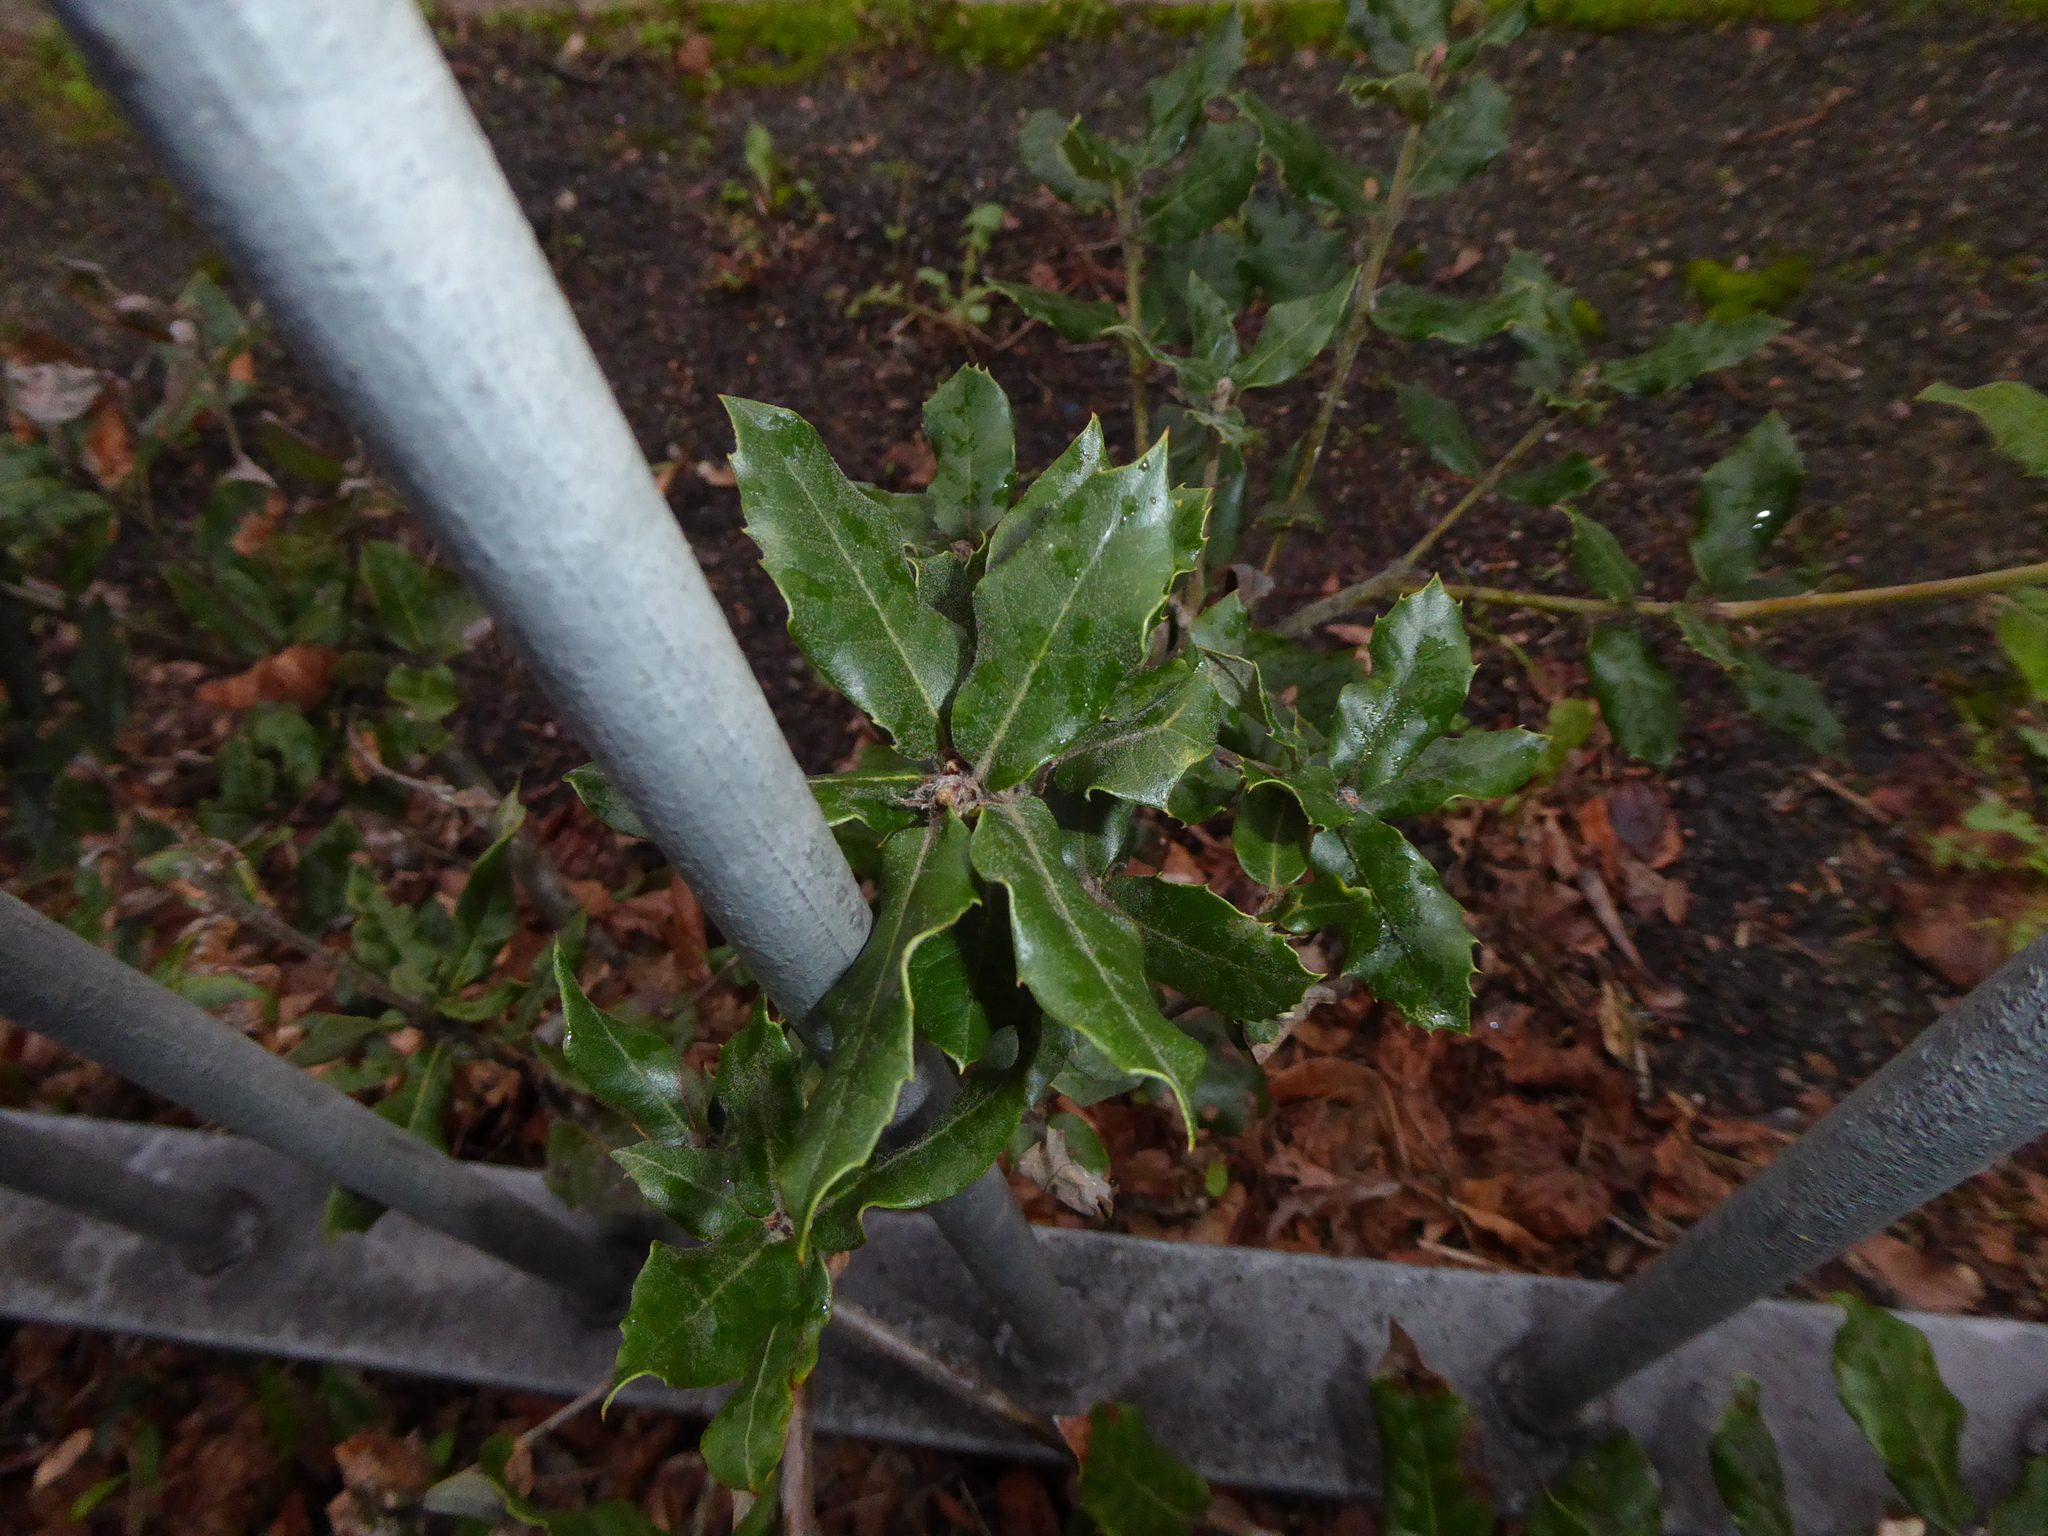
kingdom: Plantae
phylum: Tracheophyta
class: Magnoliopsida
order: Fagales
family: Fagaceae
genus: Quercus
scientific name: Quercus ilex
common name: Evergreen oak
